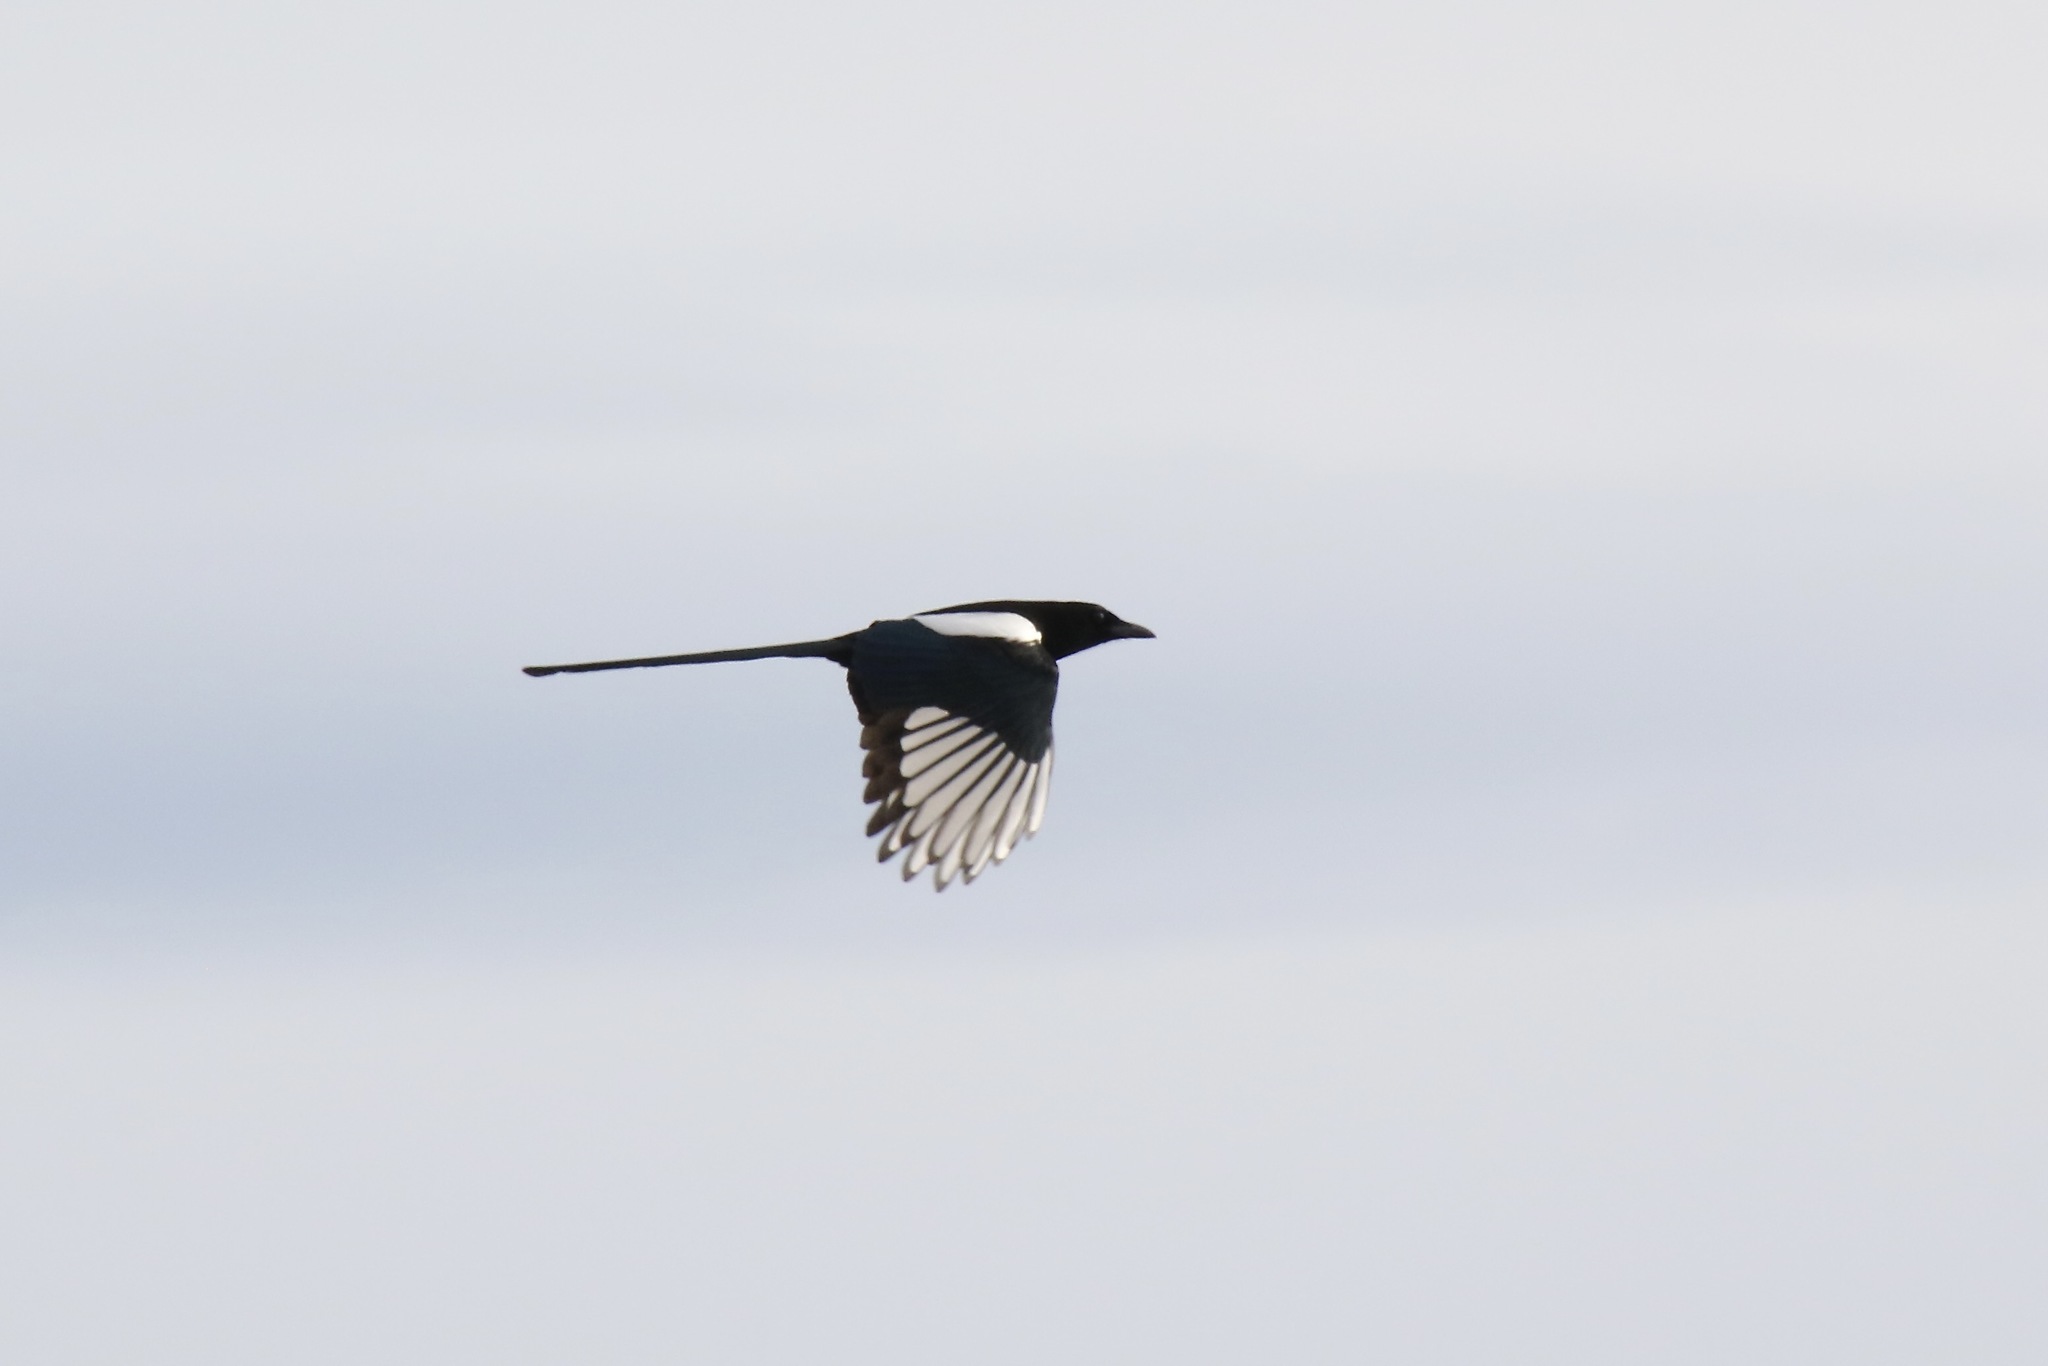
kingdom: Animalia
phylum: Chordata
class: Aves
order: Passeriformes
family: Corvidae
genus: Pica
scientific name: Pica hudsonia
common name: Black-billed magpie
